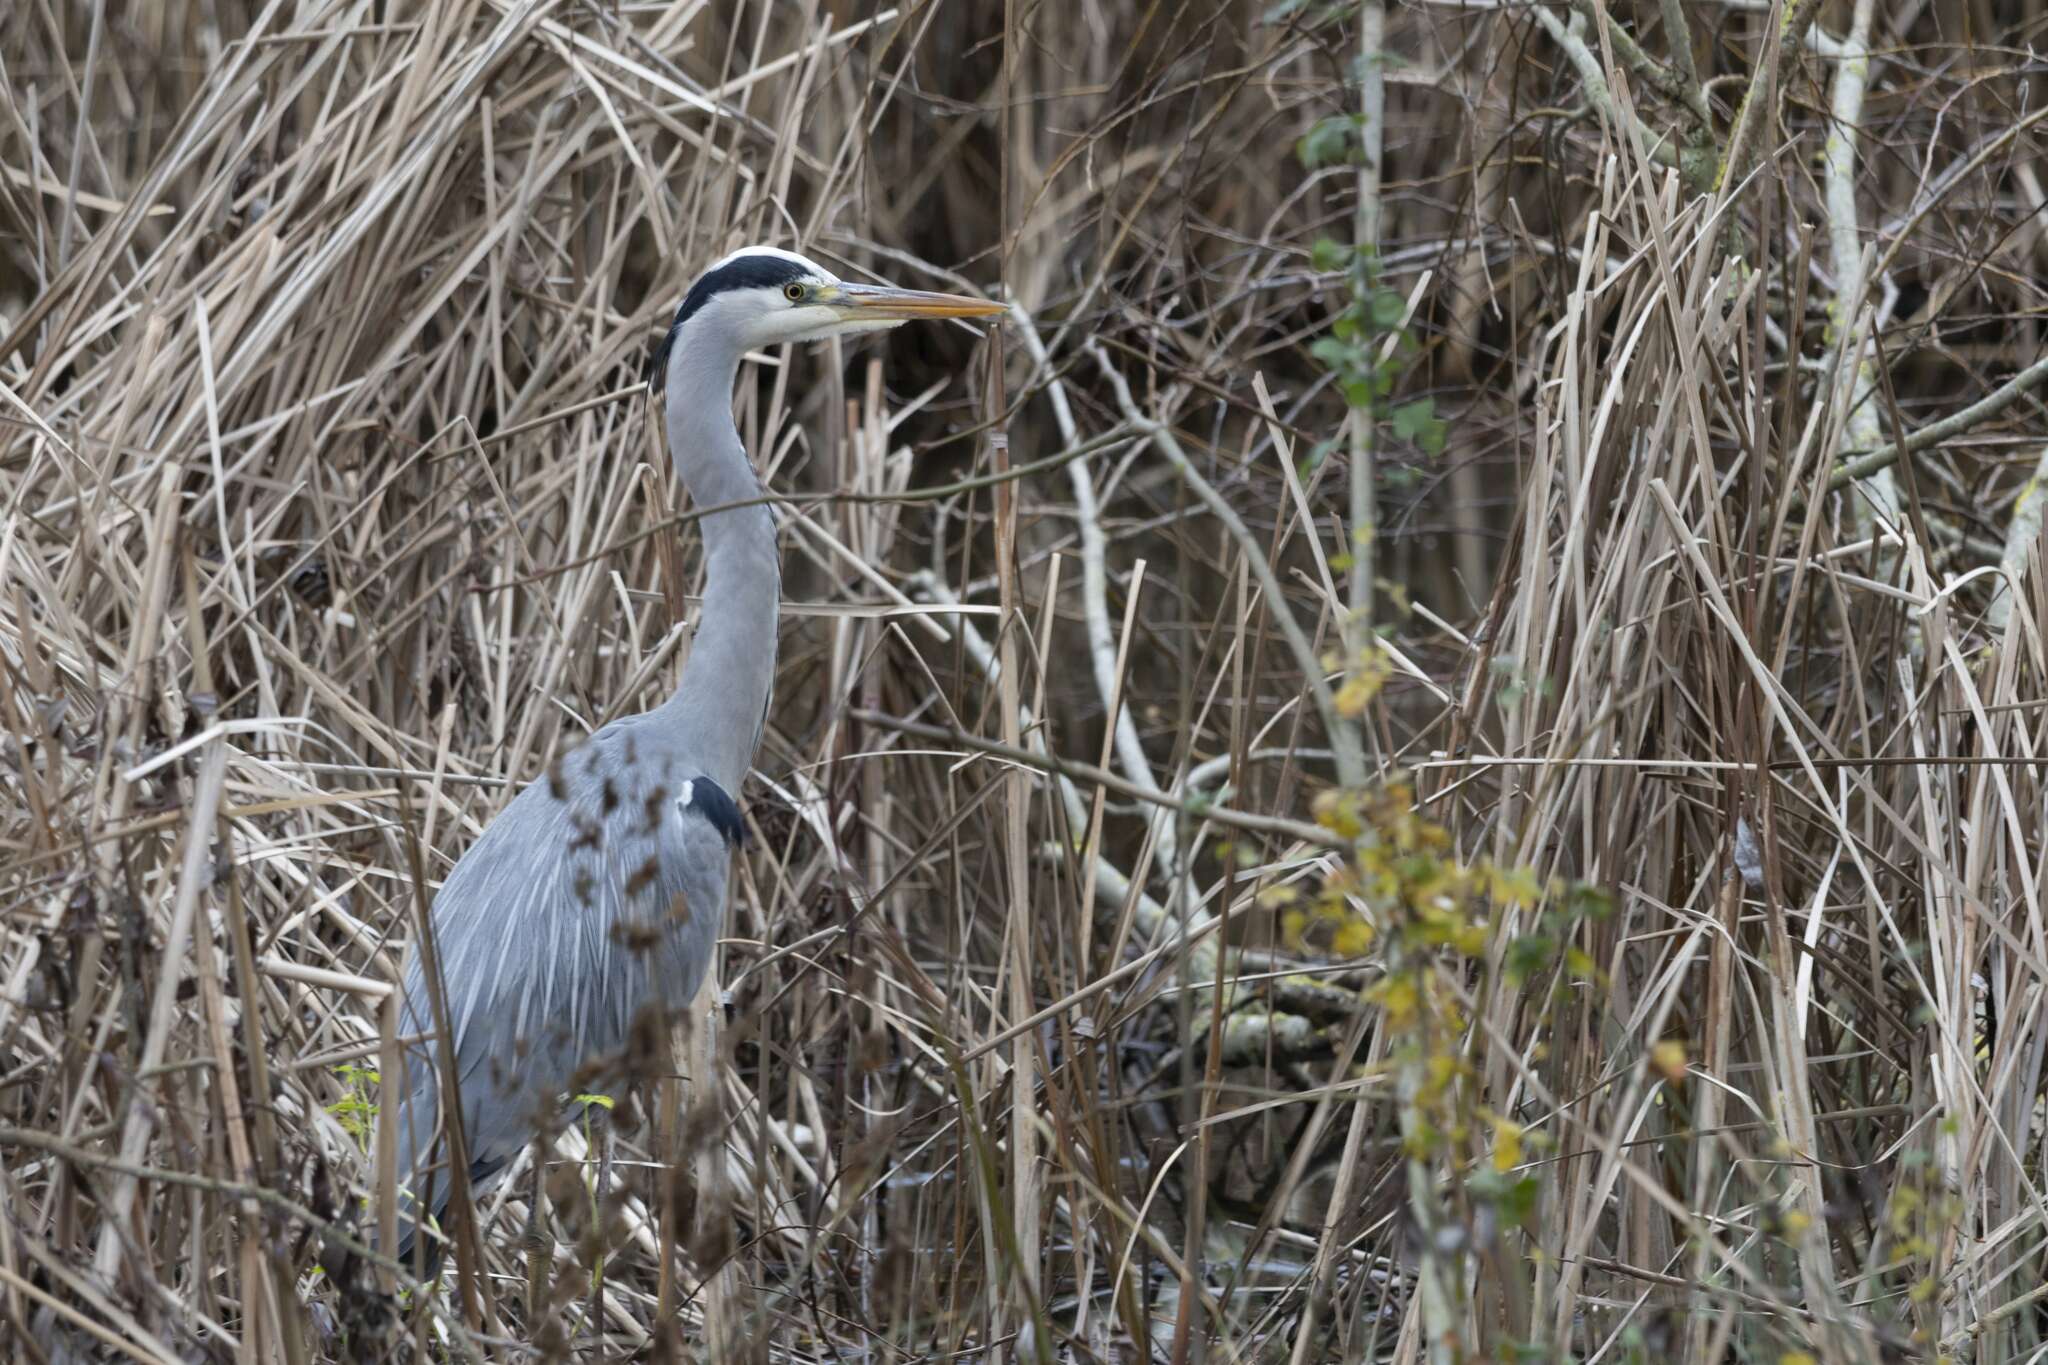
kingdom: Animalia
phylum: Chordata
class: Aves
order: Pelecaniformes
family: Ardeidae
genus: Ardea
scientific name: Ardea cinerea
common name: Grey heron
